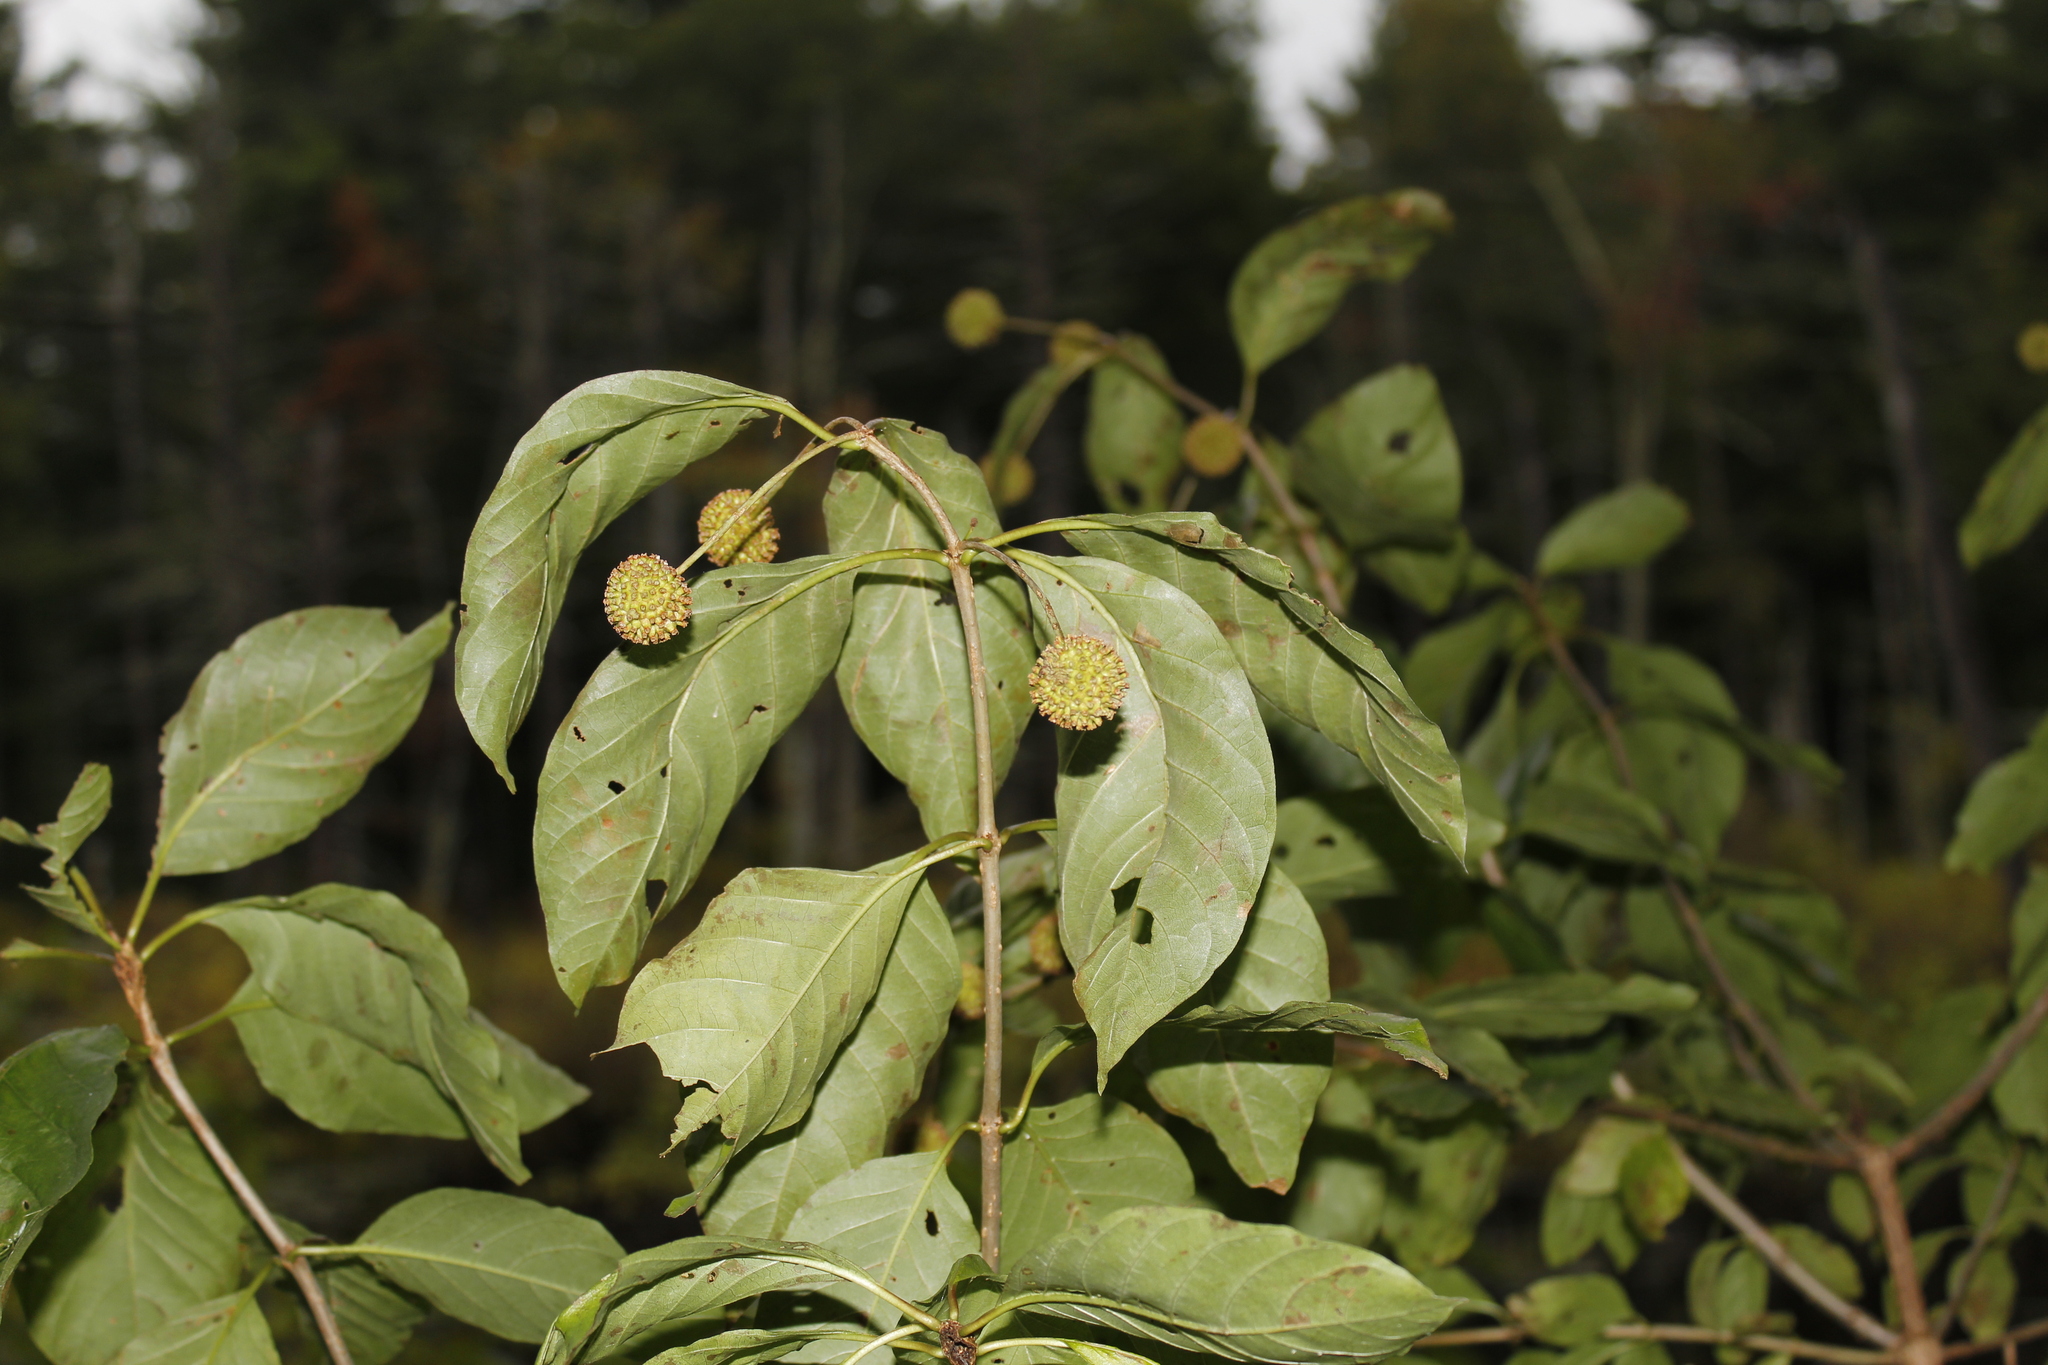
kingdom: Plantae
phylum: Tracheophyta
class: Magnoliopsida
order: Gentianales
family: Rubiaceae
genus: Cephalanthus
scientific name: Cephalanthus occidentalis
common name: Button-willow
